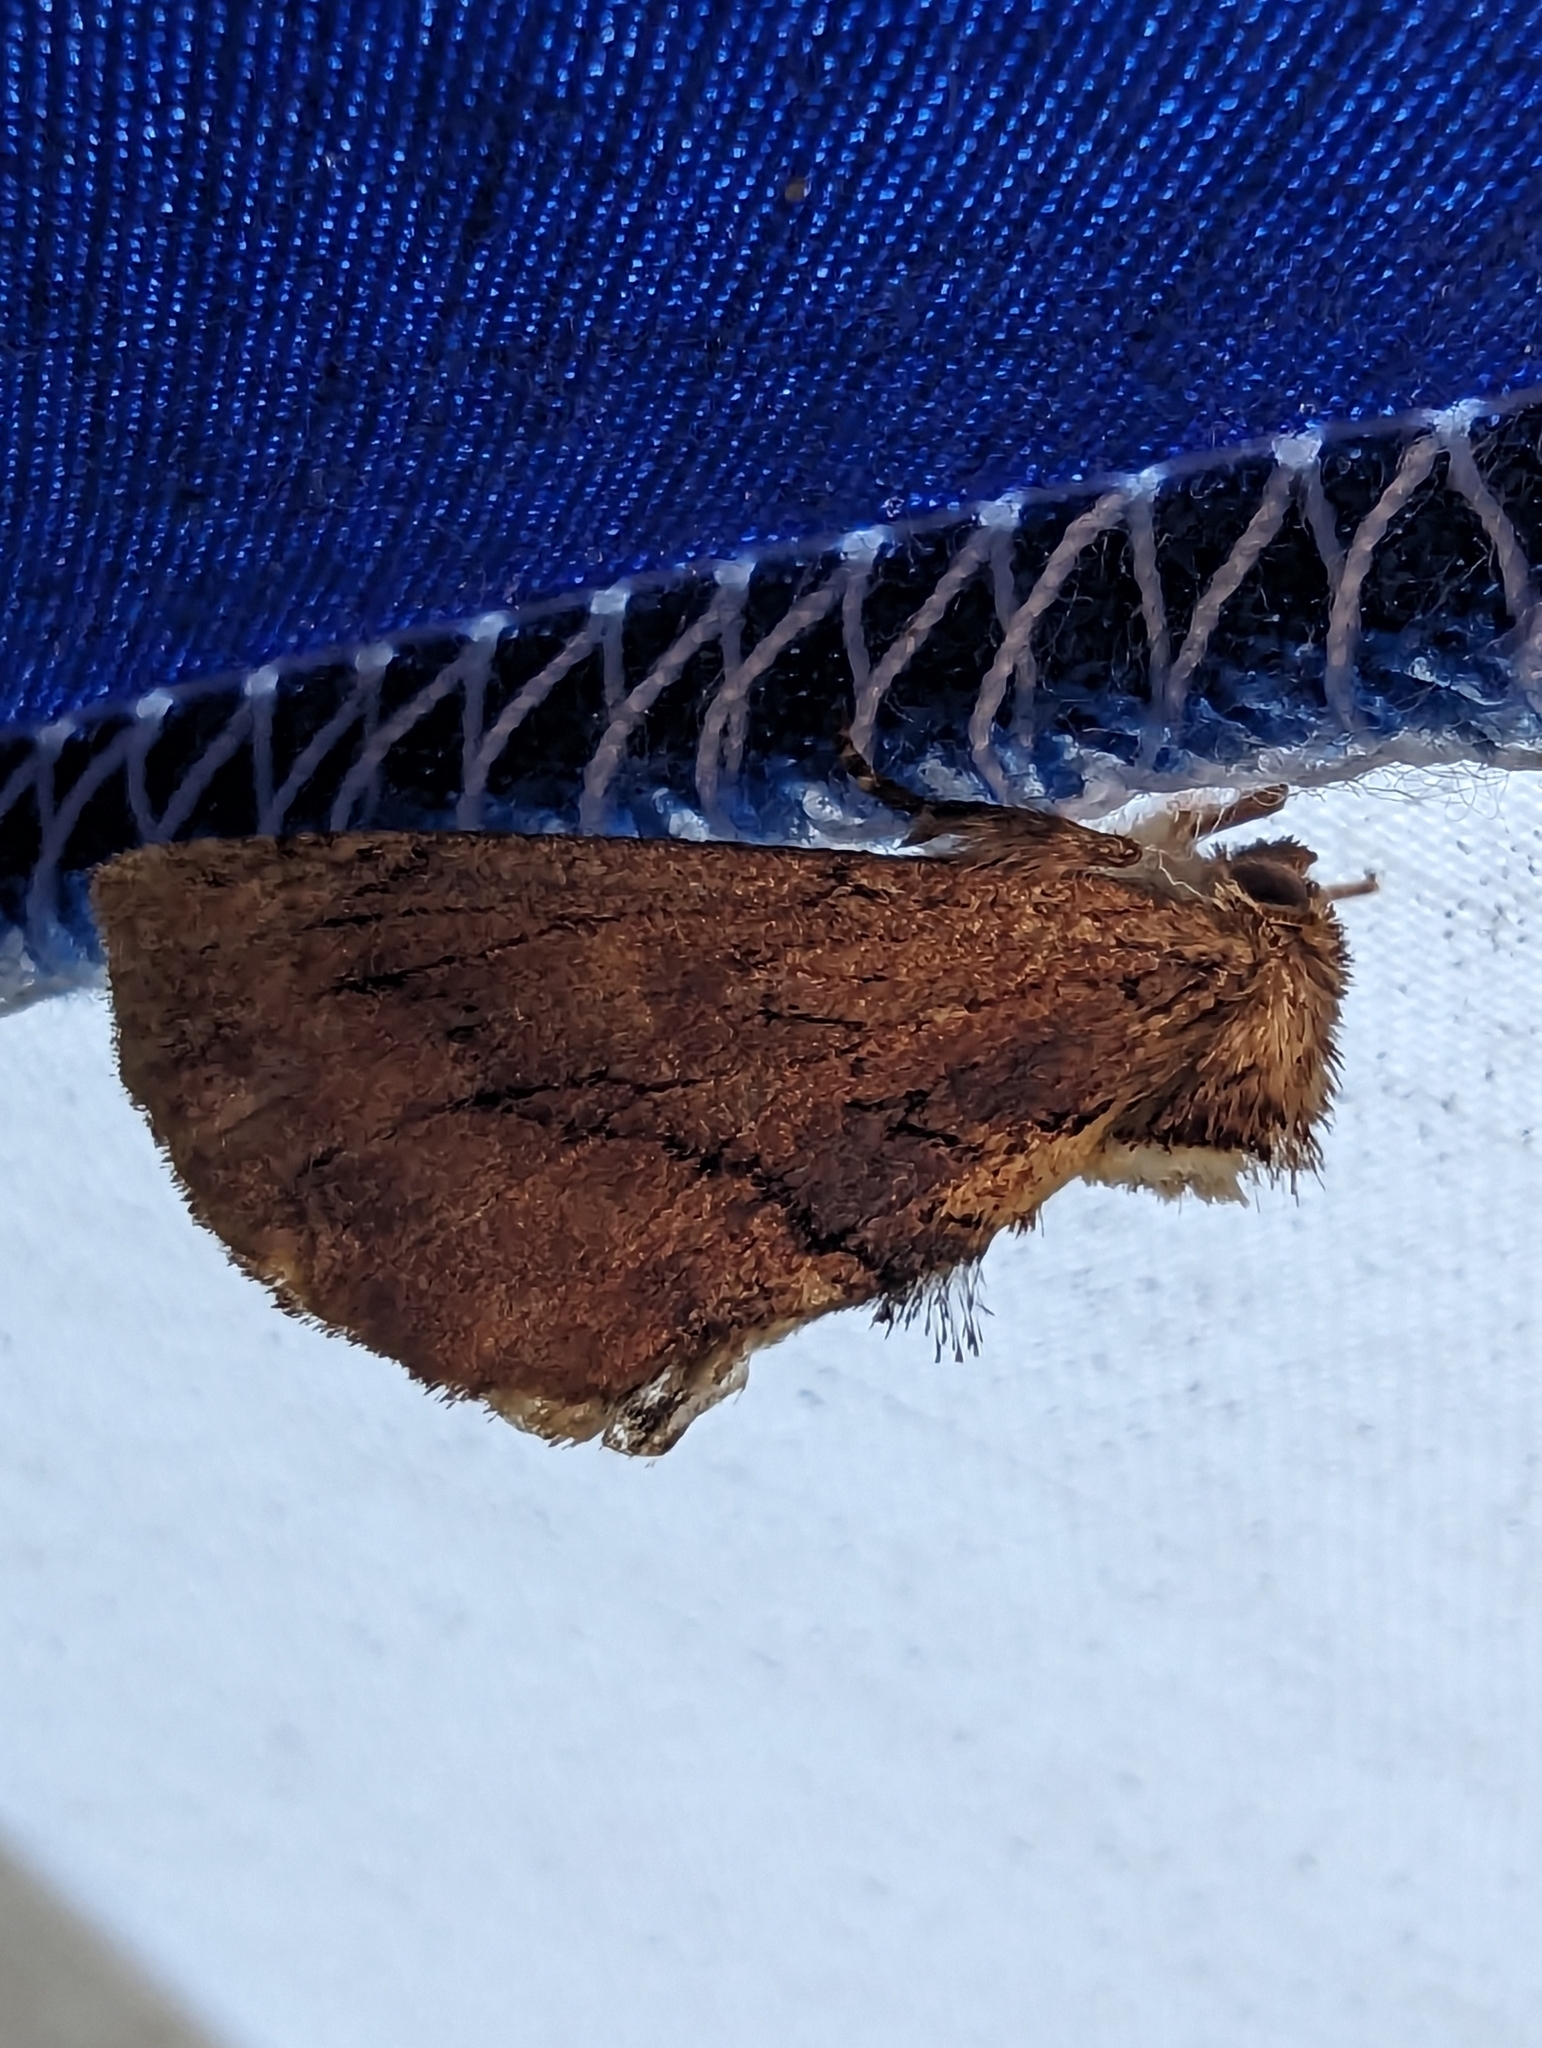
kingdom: Animalia
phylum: Arthropoda
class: Insecta
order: Lepidoptera
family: Notodontidae
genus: Ptilodon
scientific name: Ptilodon capucina
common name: Coxcomb prominent
